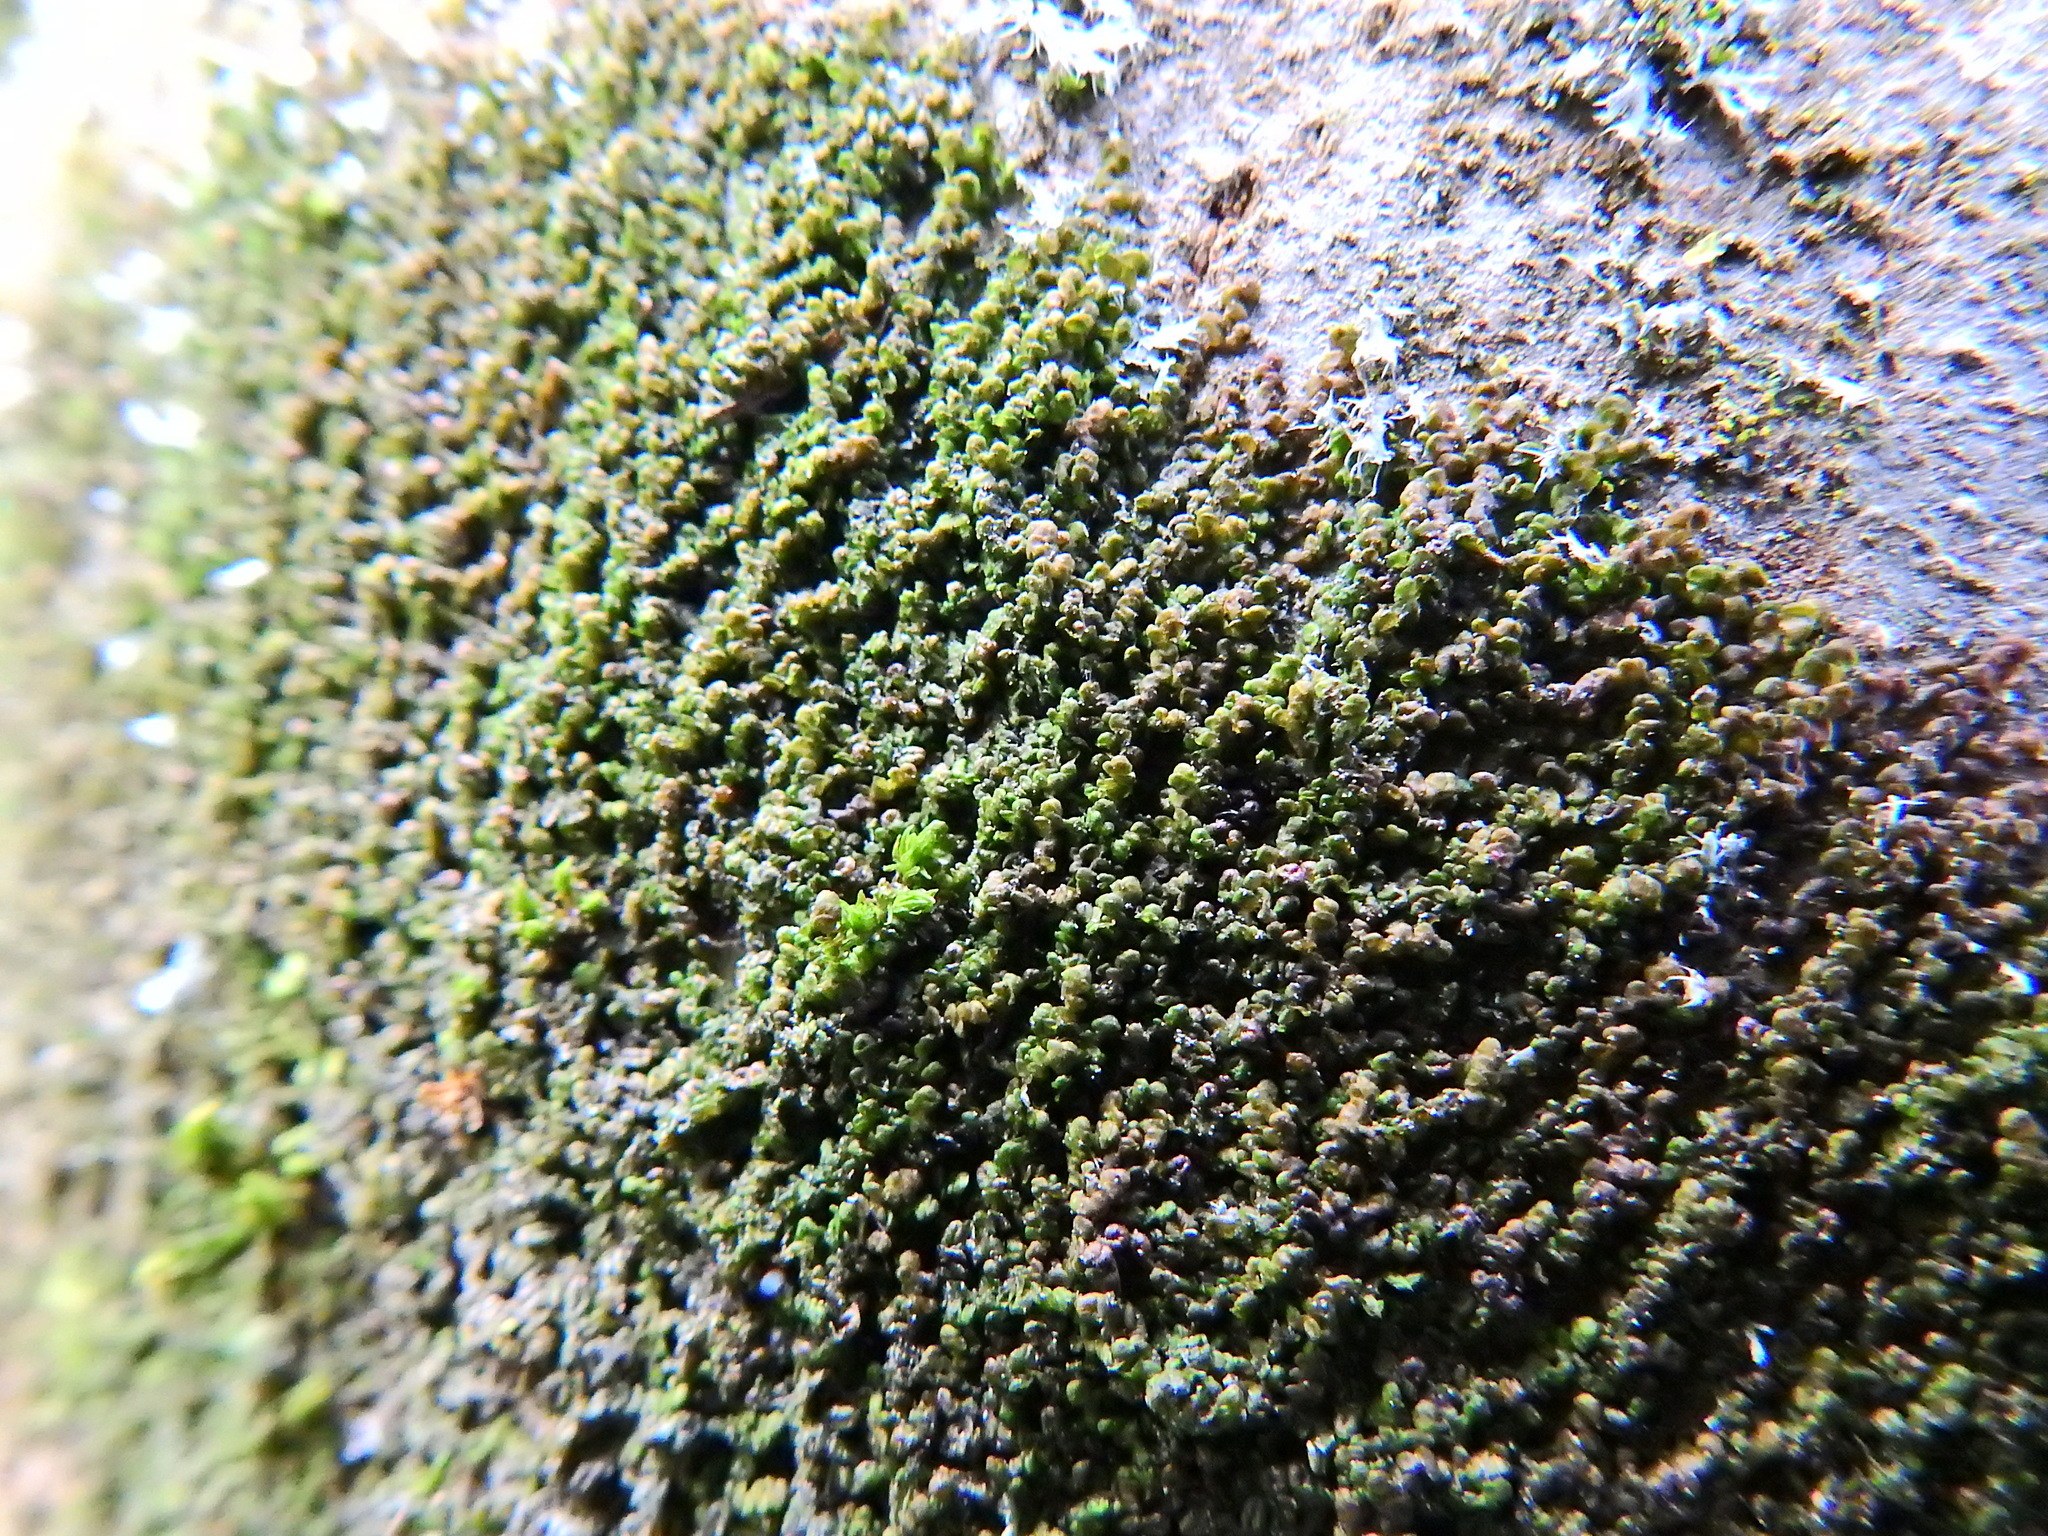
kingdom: Plantae
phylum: Marchantiophyta
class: Jungermanniopsida
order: Porellales
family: Frullaniaceae
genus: Frullania
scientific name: Frullania dilatata
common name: Dilated scalewort
